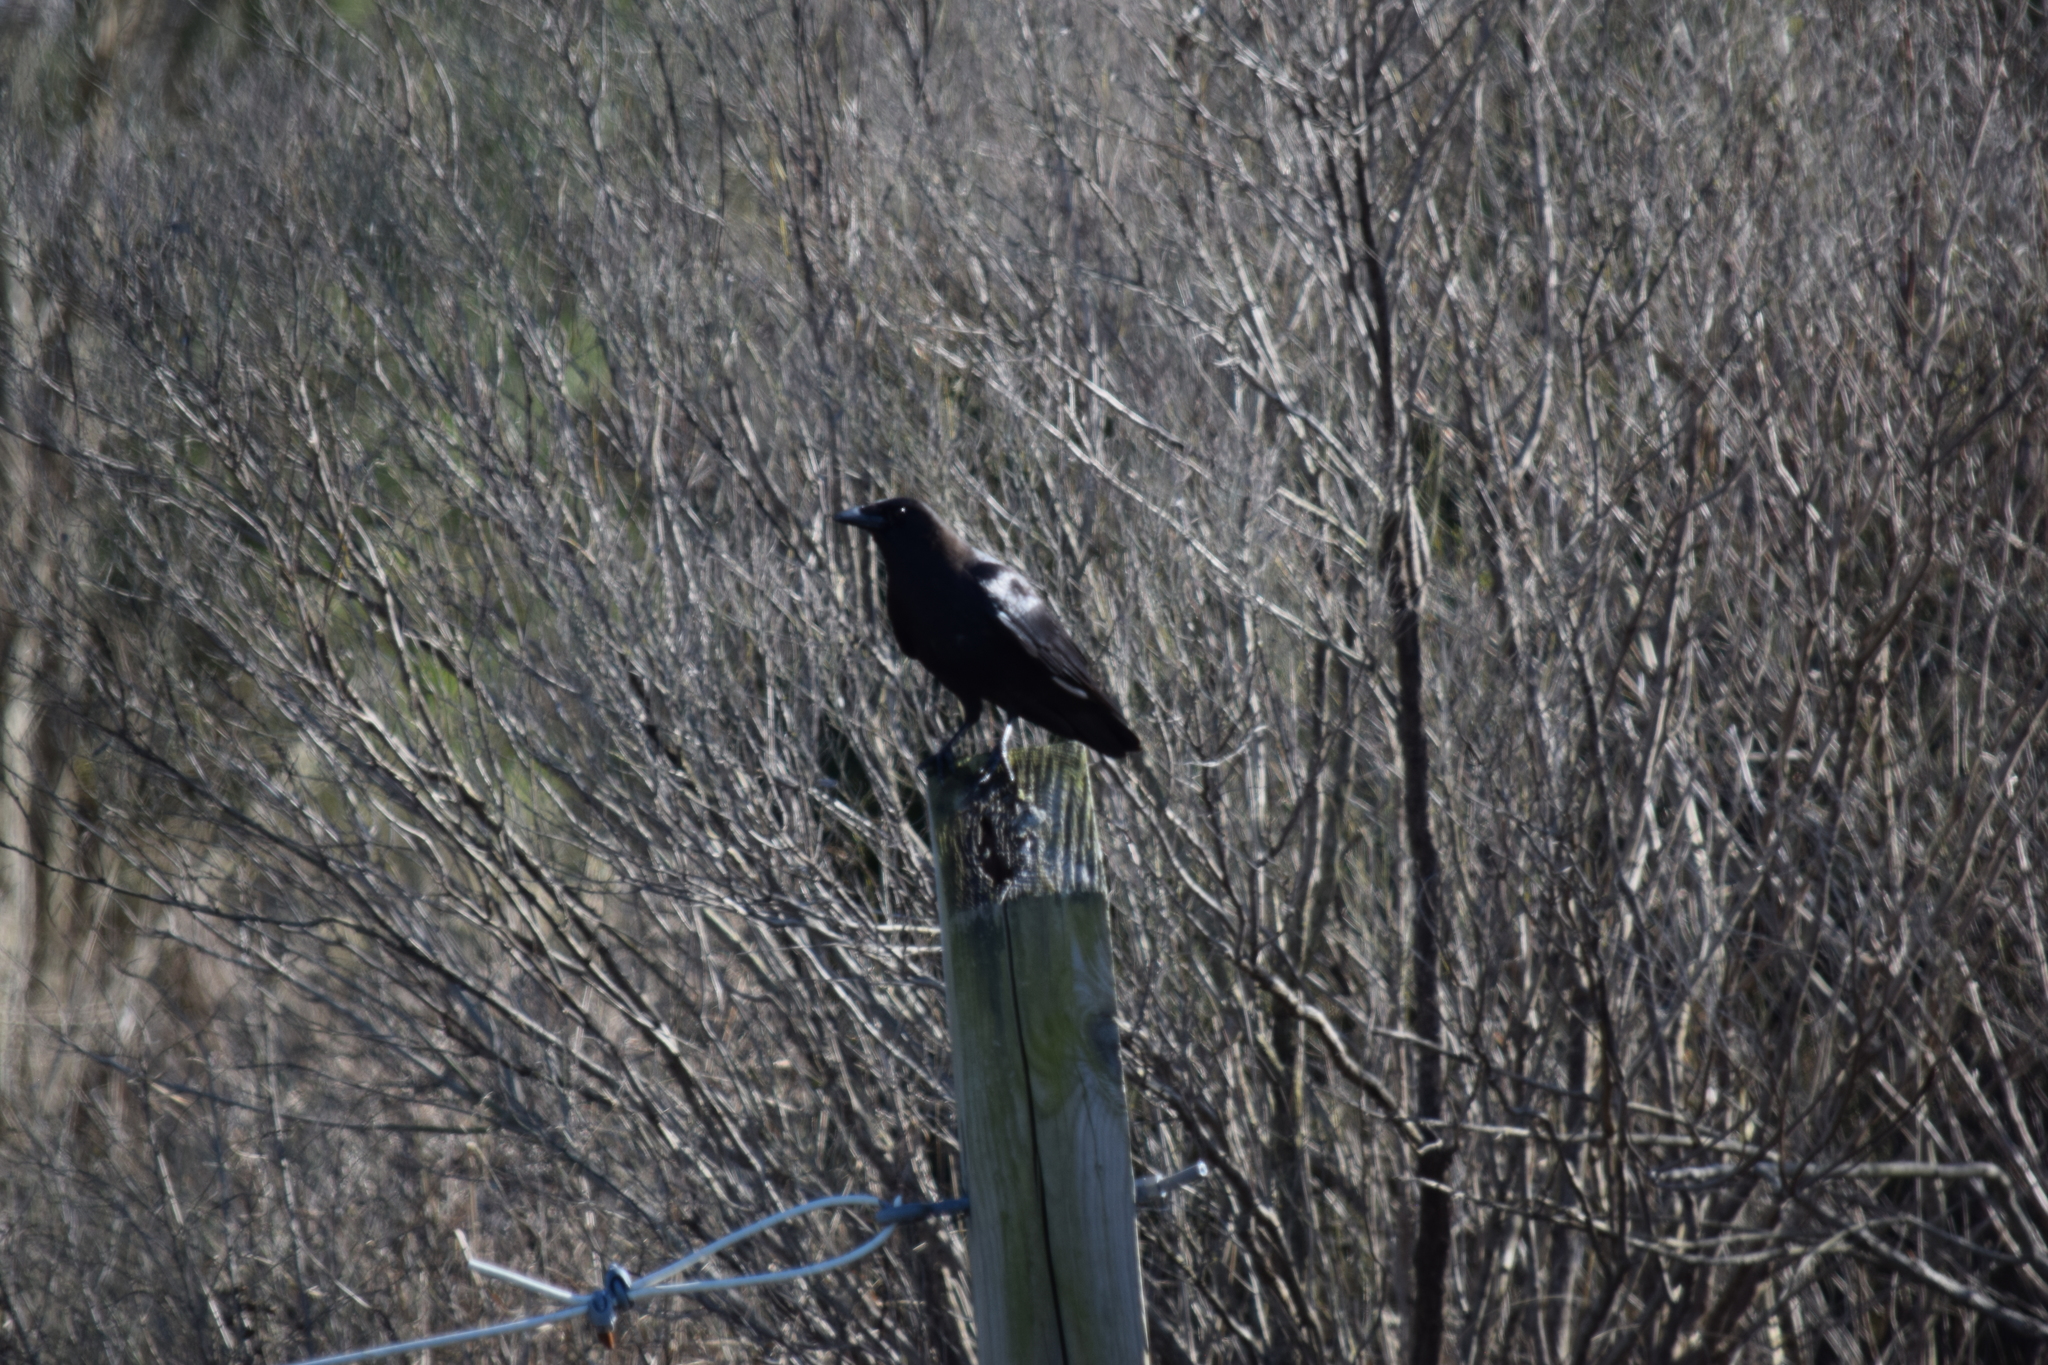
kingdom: Animalia
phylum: Chordata
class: Aves
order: Passeriformes
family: Corvidae
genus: Corvus
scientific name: Corvus brachyrhynchos
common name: American crow
